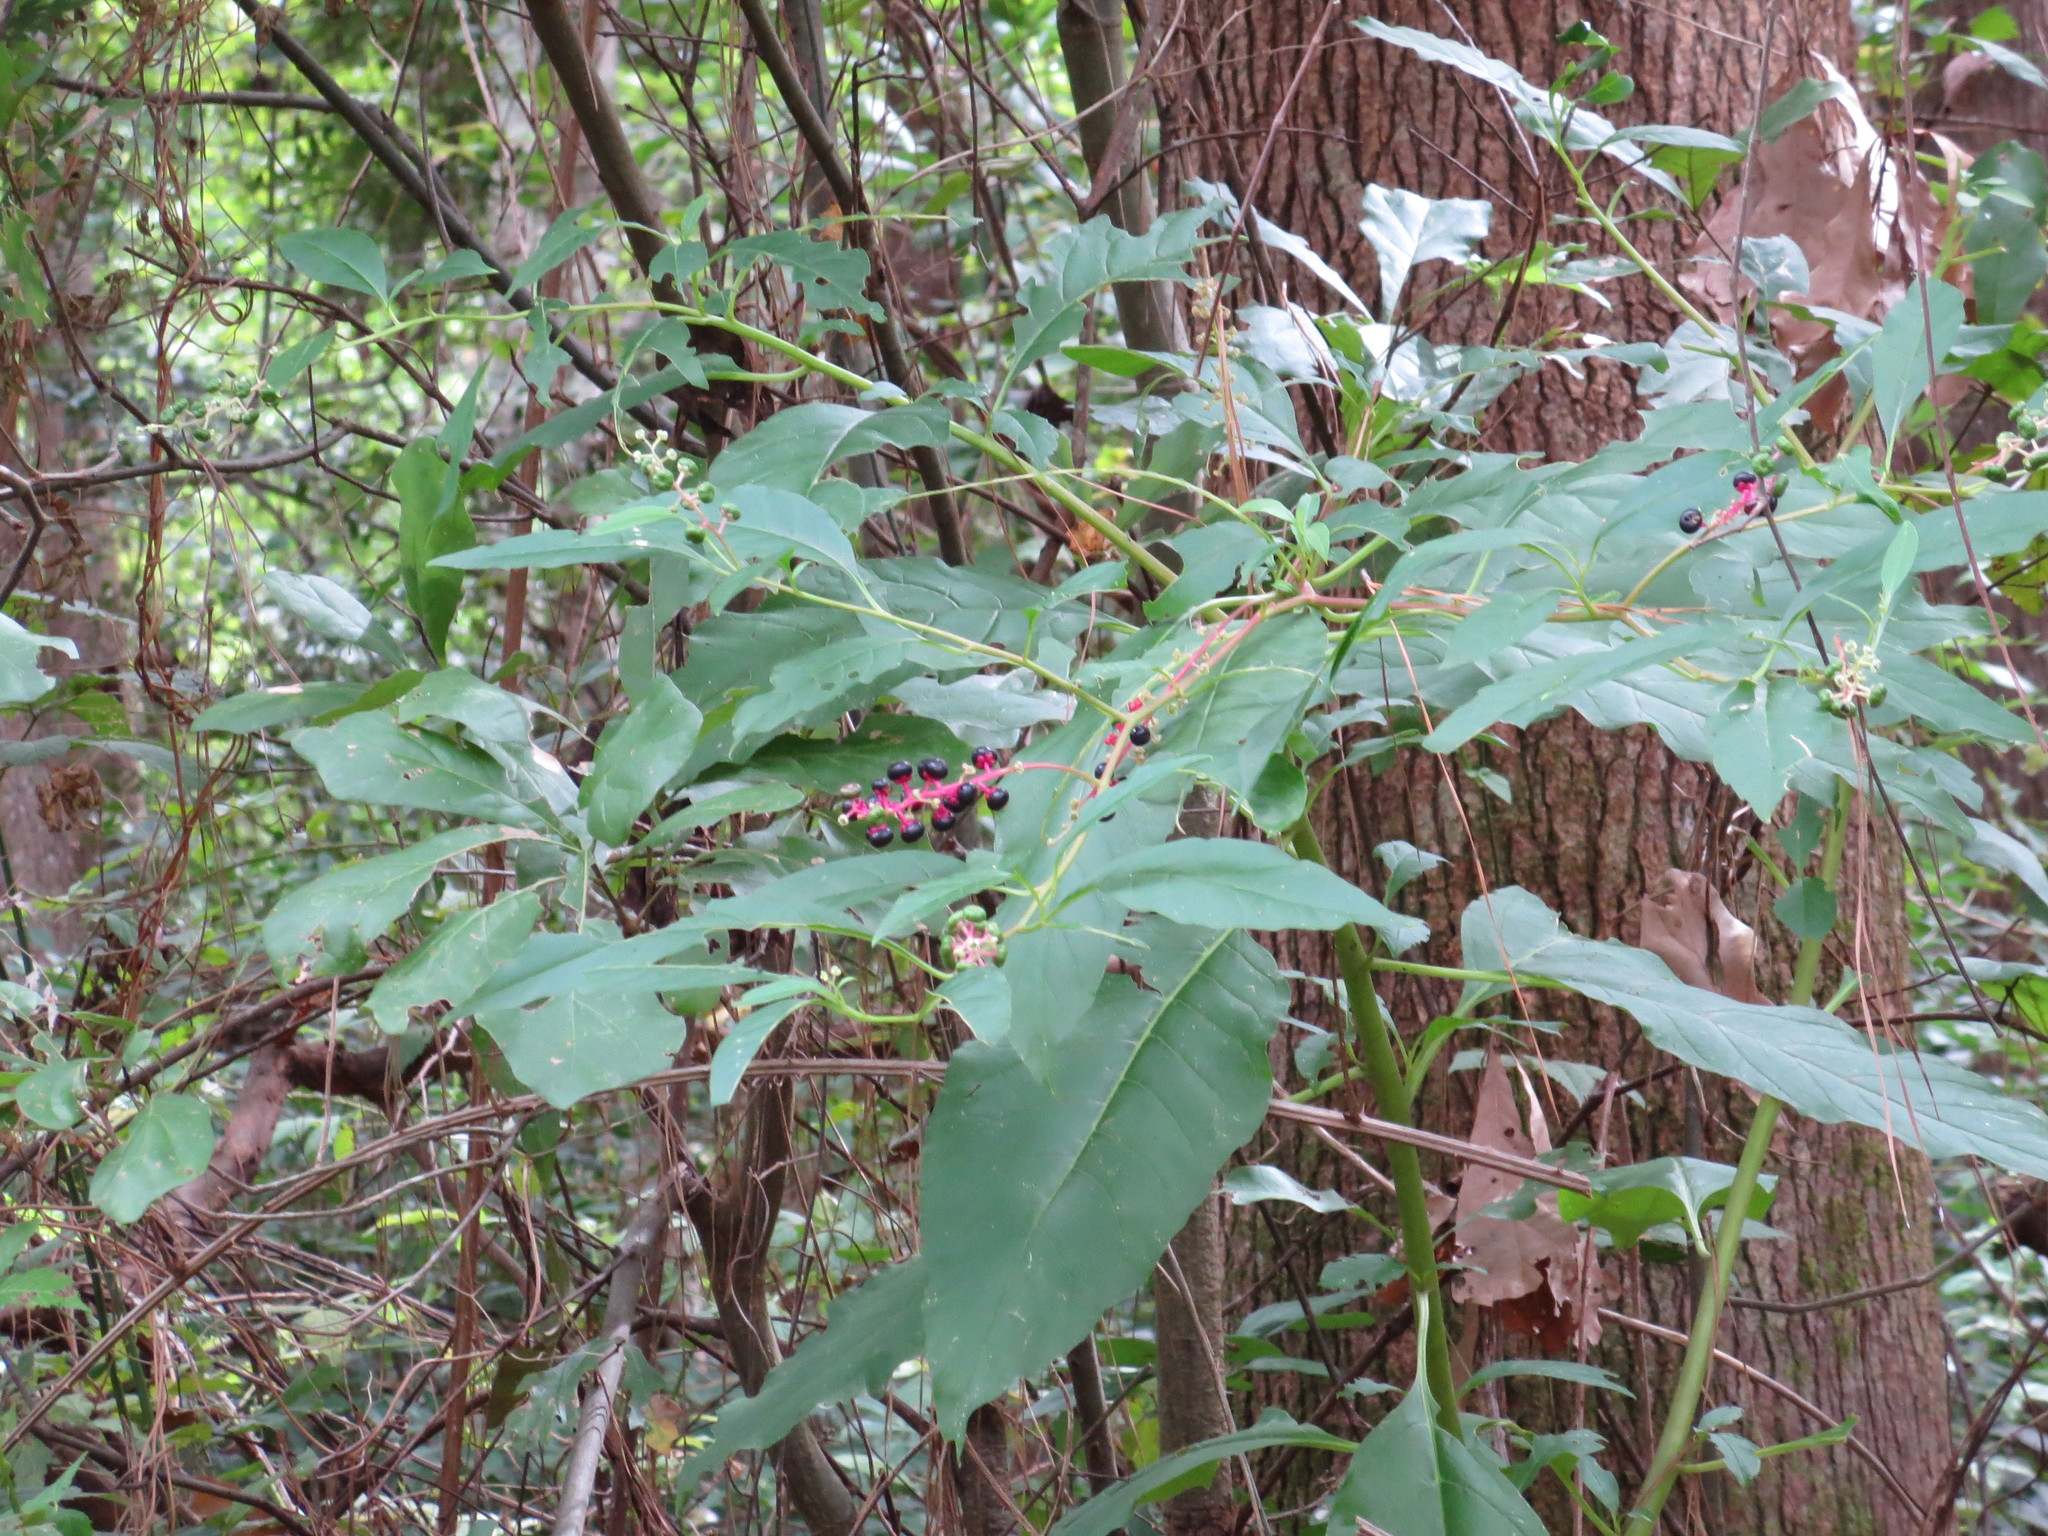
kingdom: Plantae
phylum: Tracheophyta
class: Magnoliopsida
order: Caryophyllales
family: Phytolaccaceae
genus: Phytolacca
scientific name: Phytolacca americana
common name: American pokeweed
